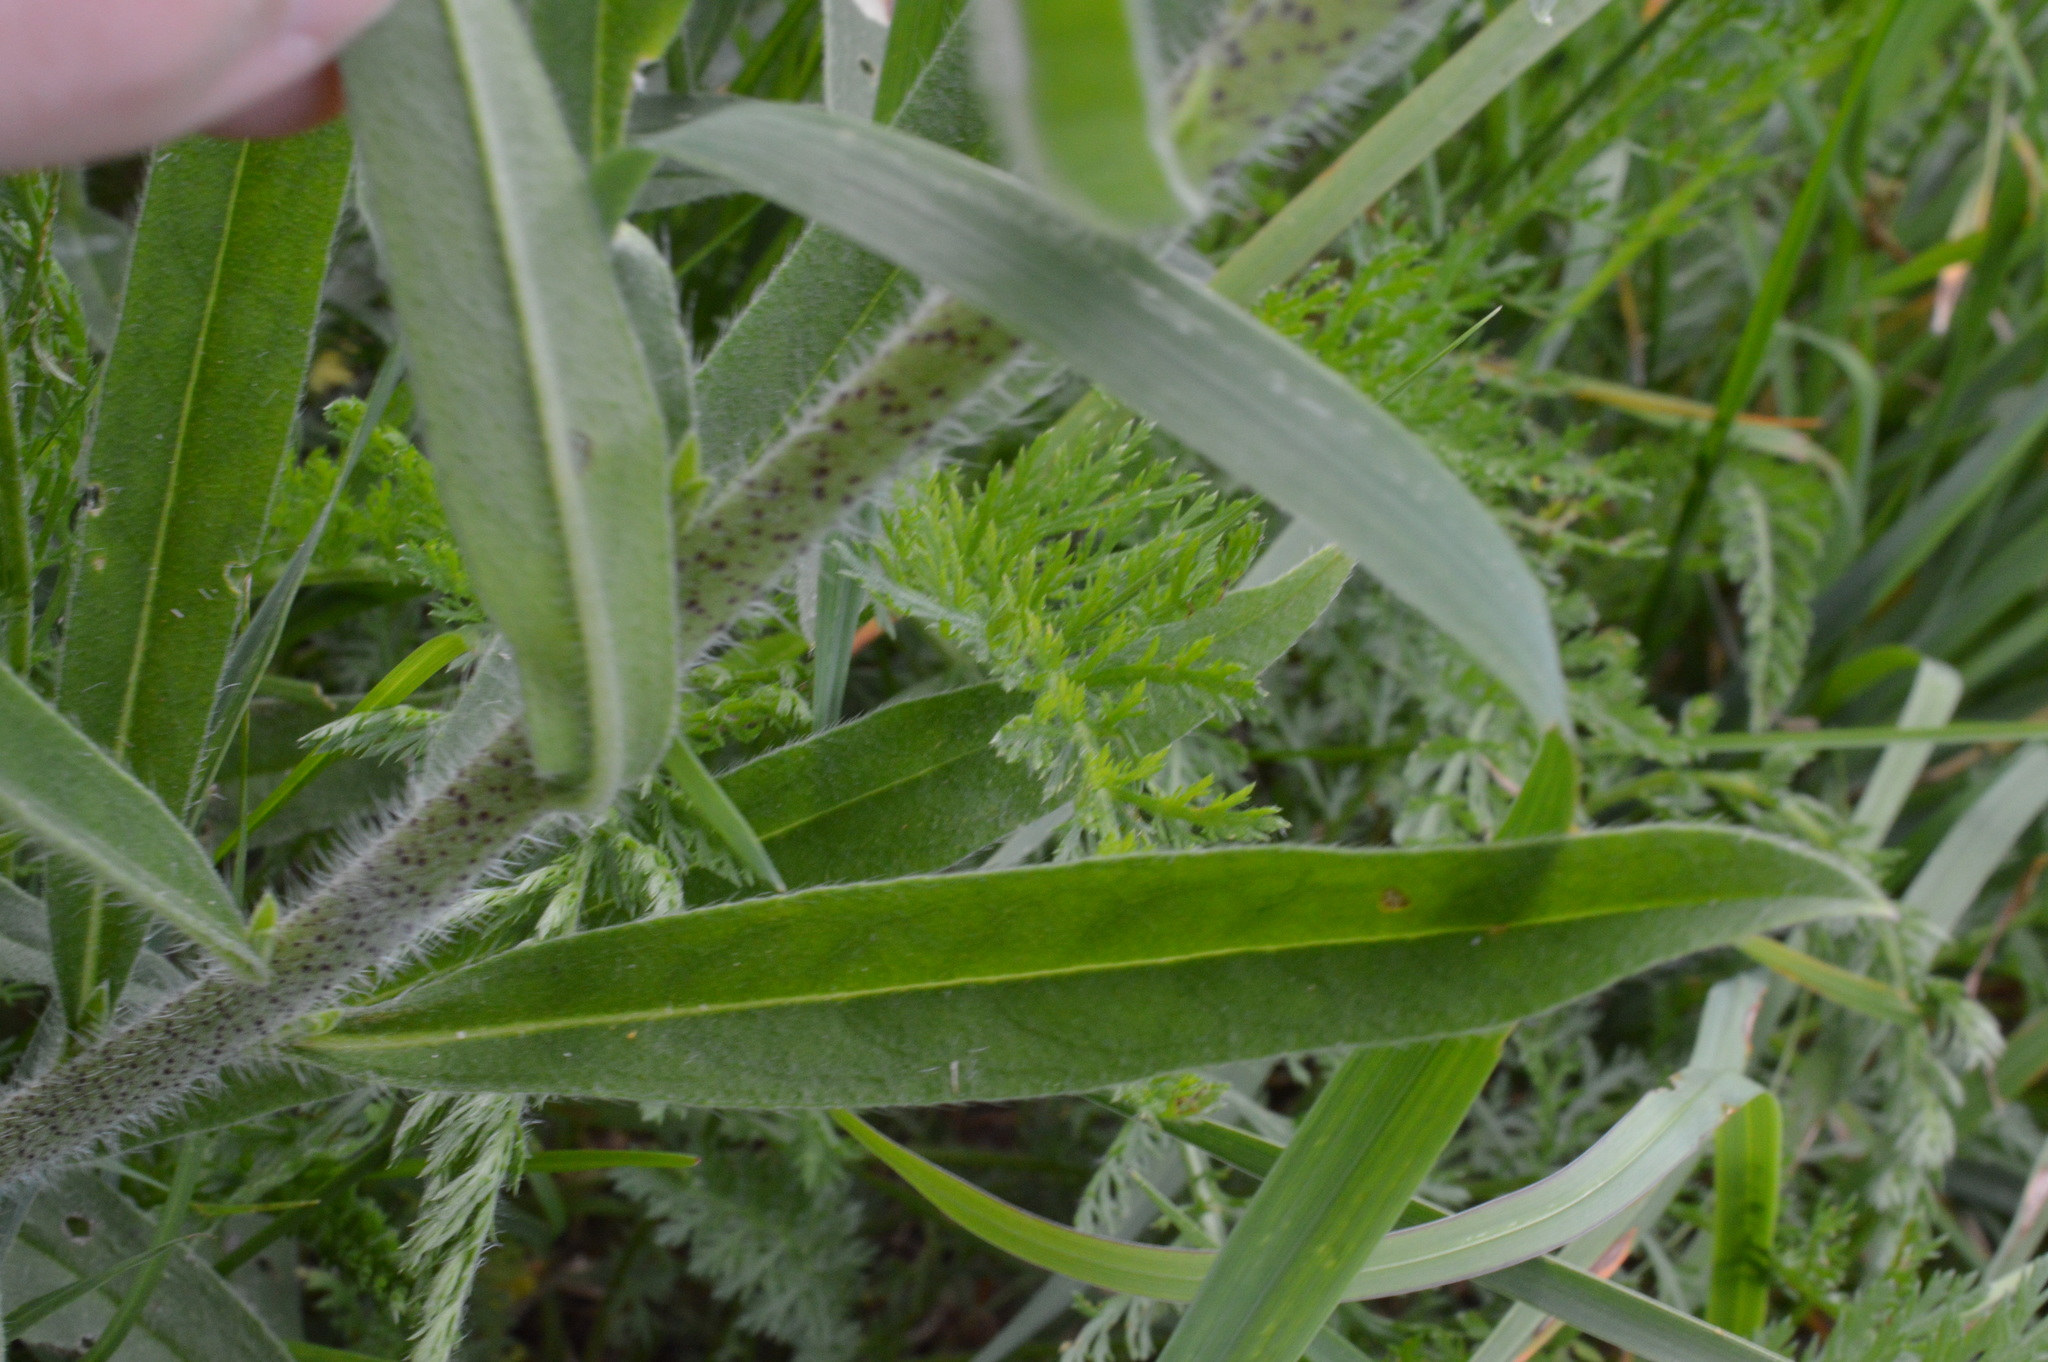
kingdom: Plantae
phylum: Tracheophyta
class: Magnoliopsida
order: Boraginales
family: Boraginaceae
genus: Echium
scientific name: Echium vulgare
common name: Common viper's bugloss
